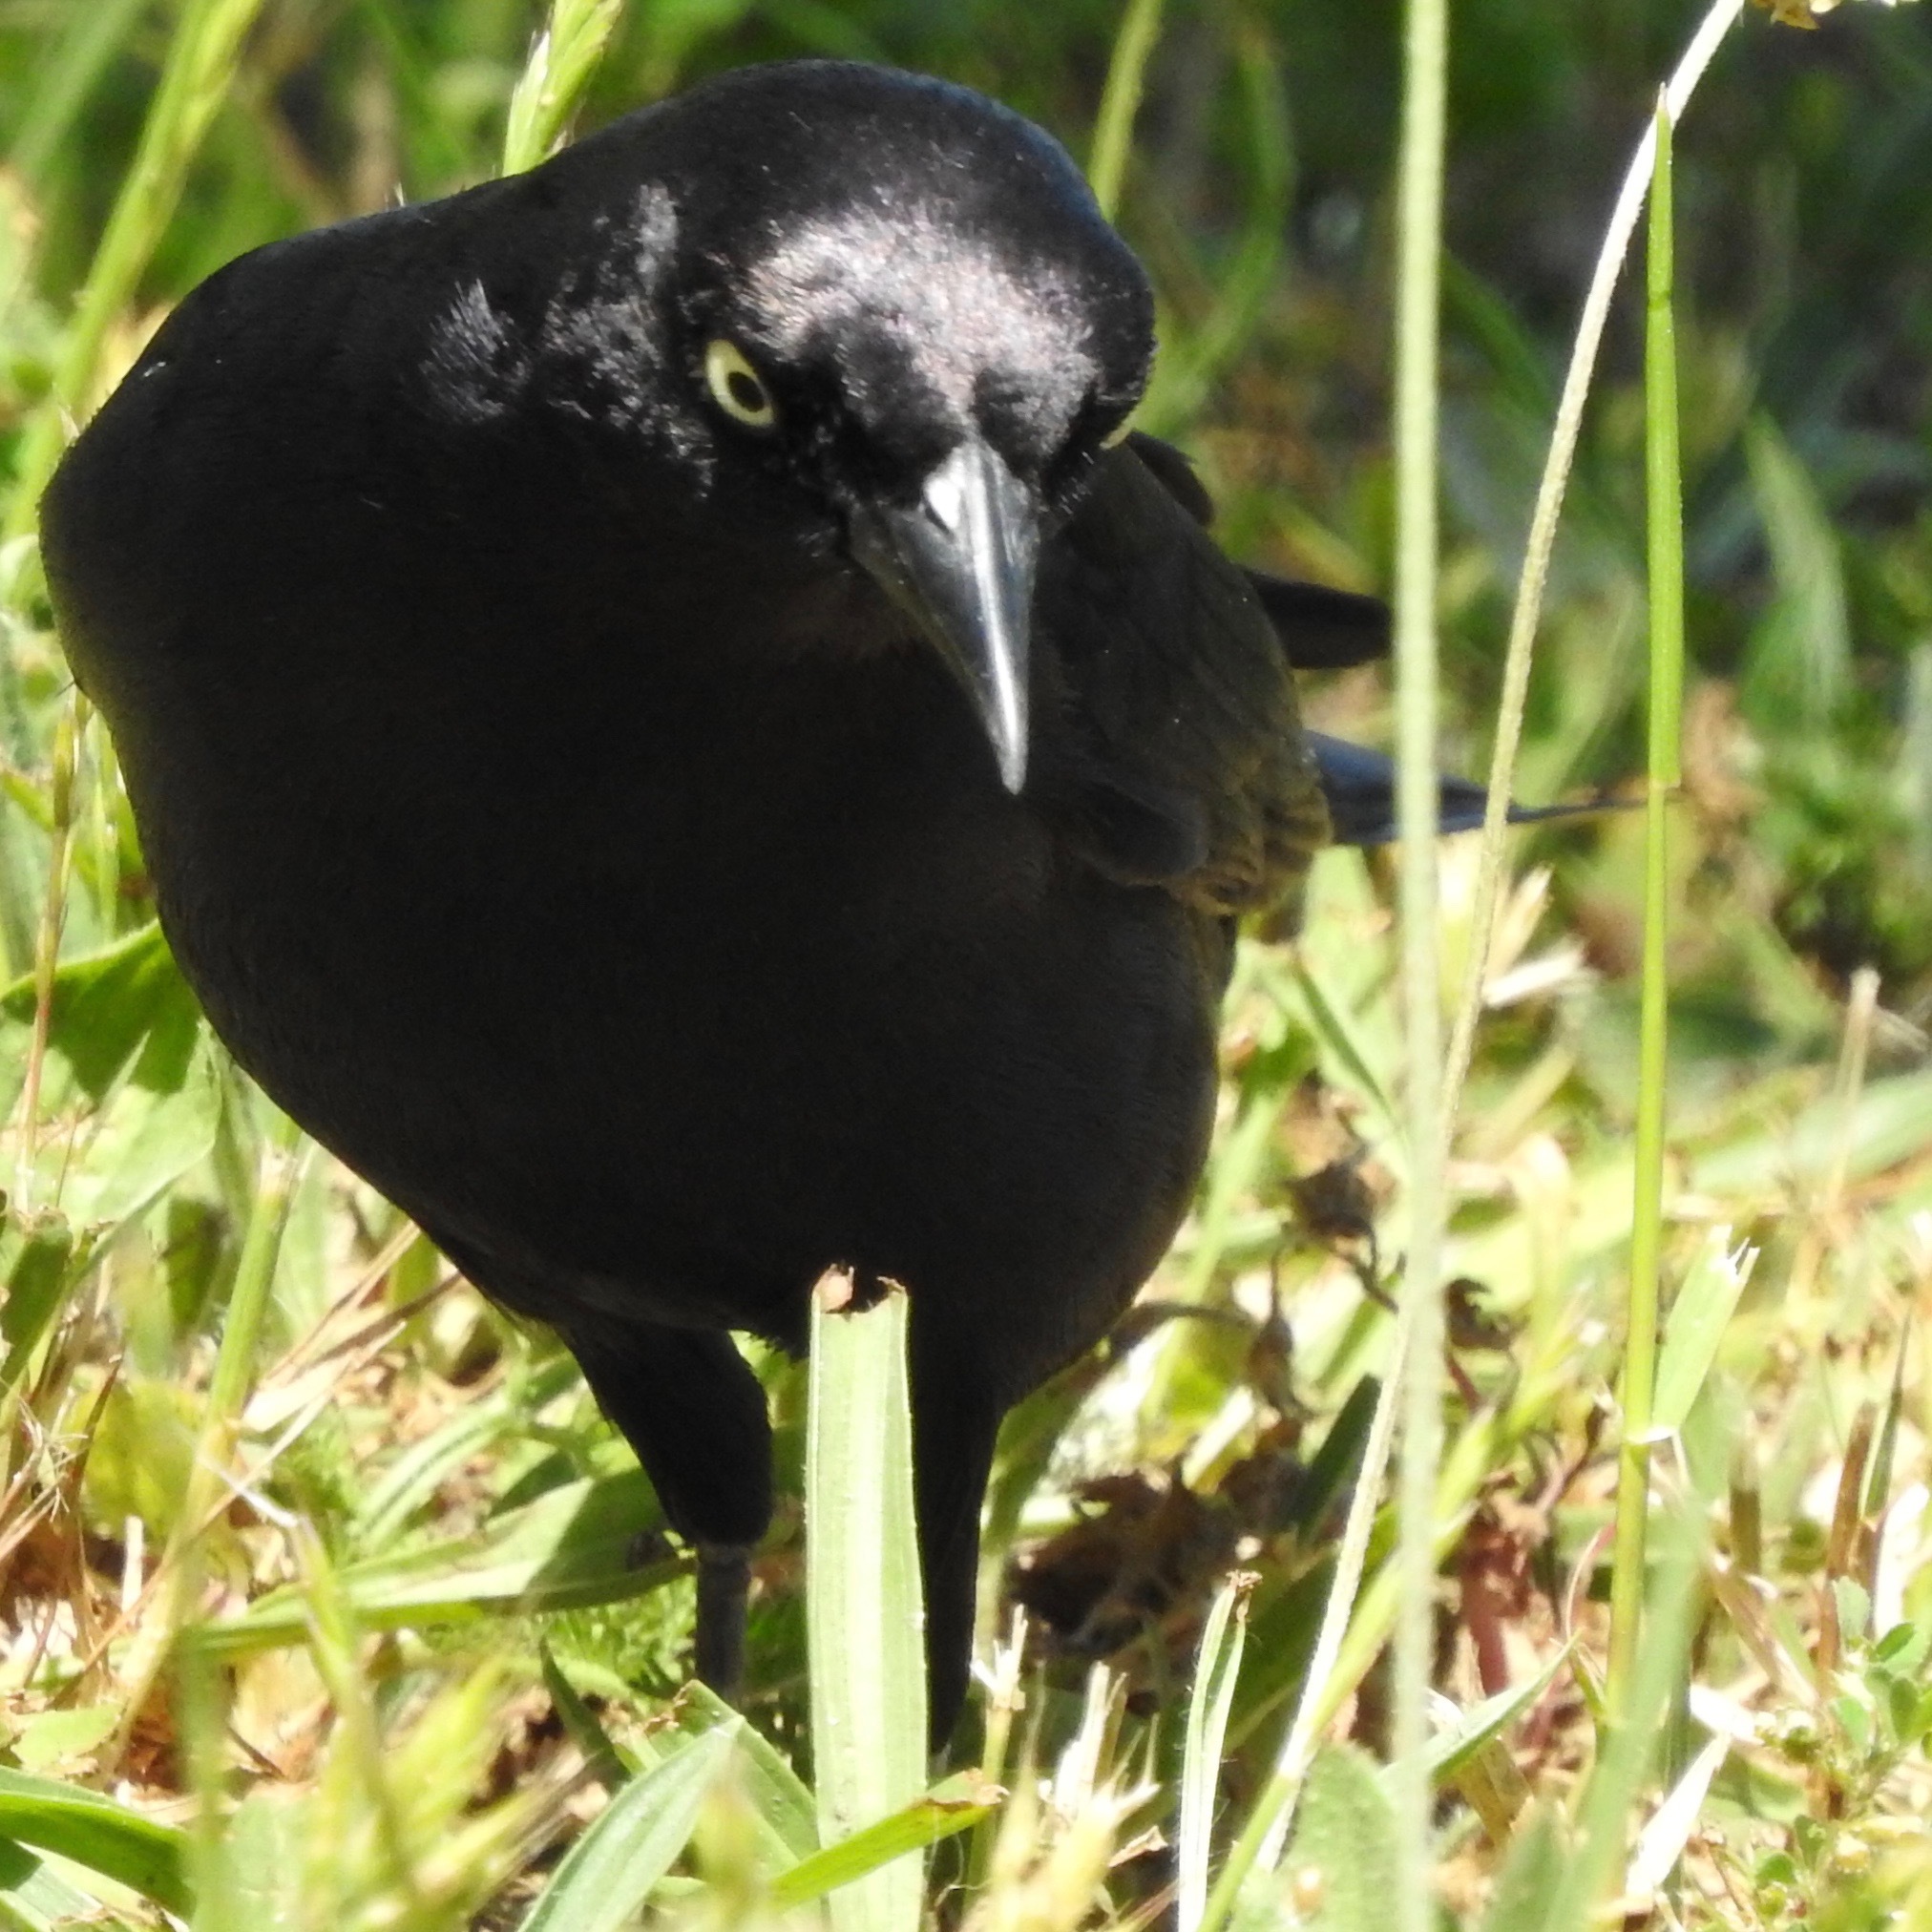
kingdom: Animalia
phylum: Chordata
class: Aves
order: Passeriformes
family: Icteridae
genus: Euphagus
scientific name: Euphagus cyanocephalus
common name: Brewer's blackbird
